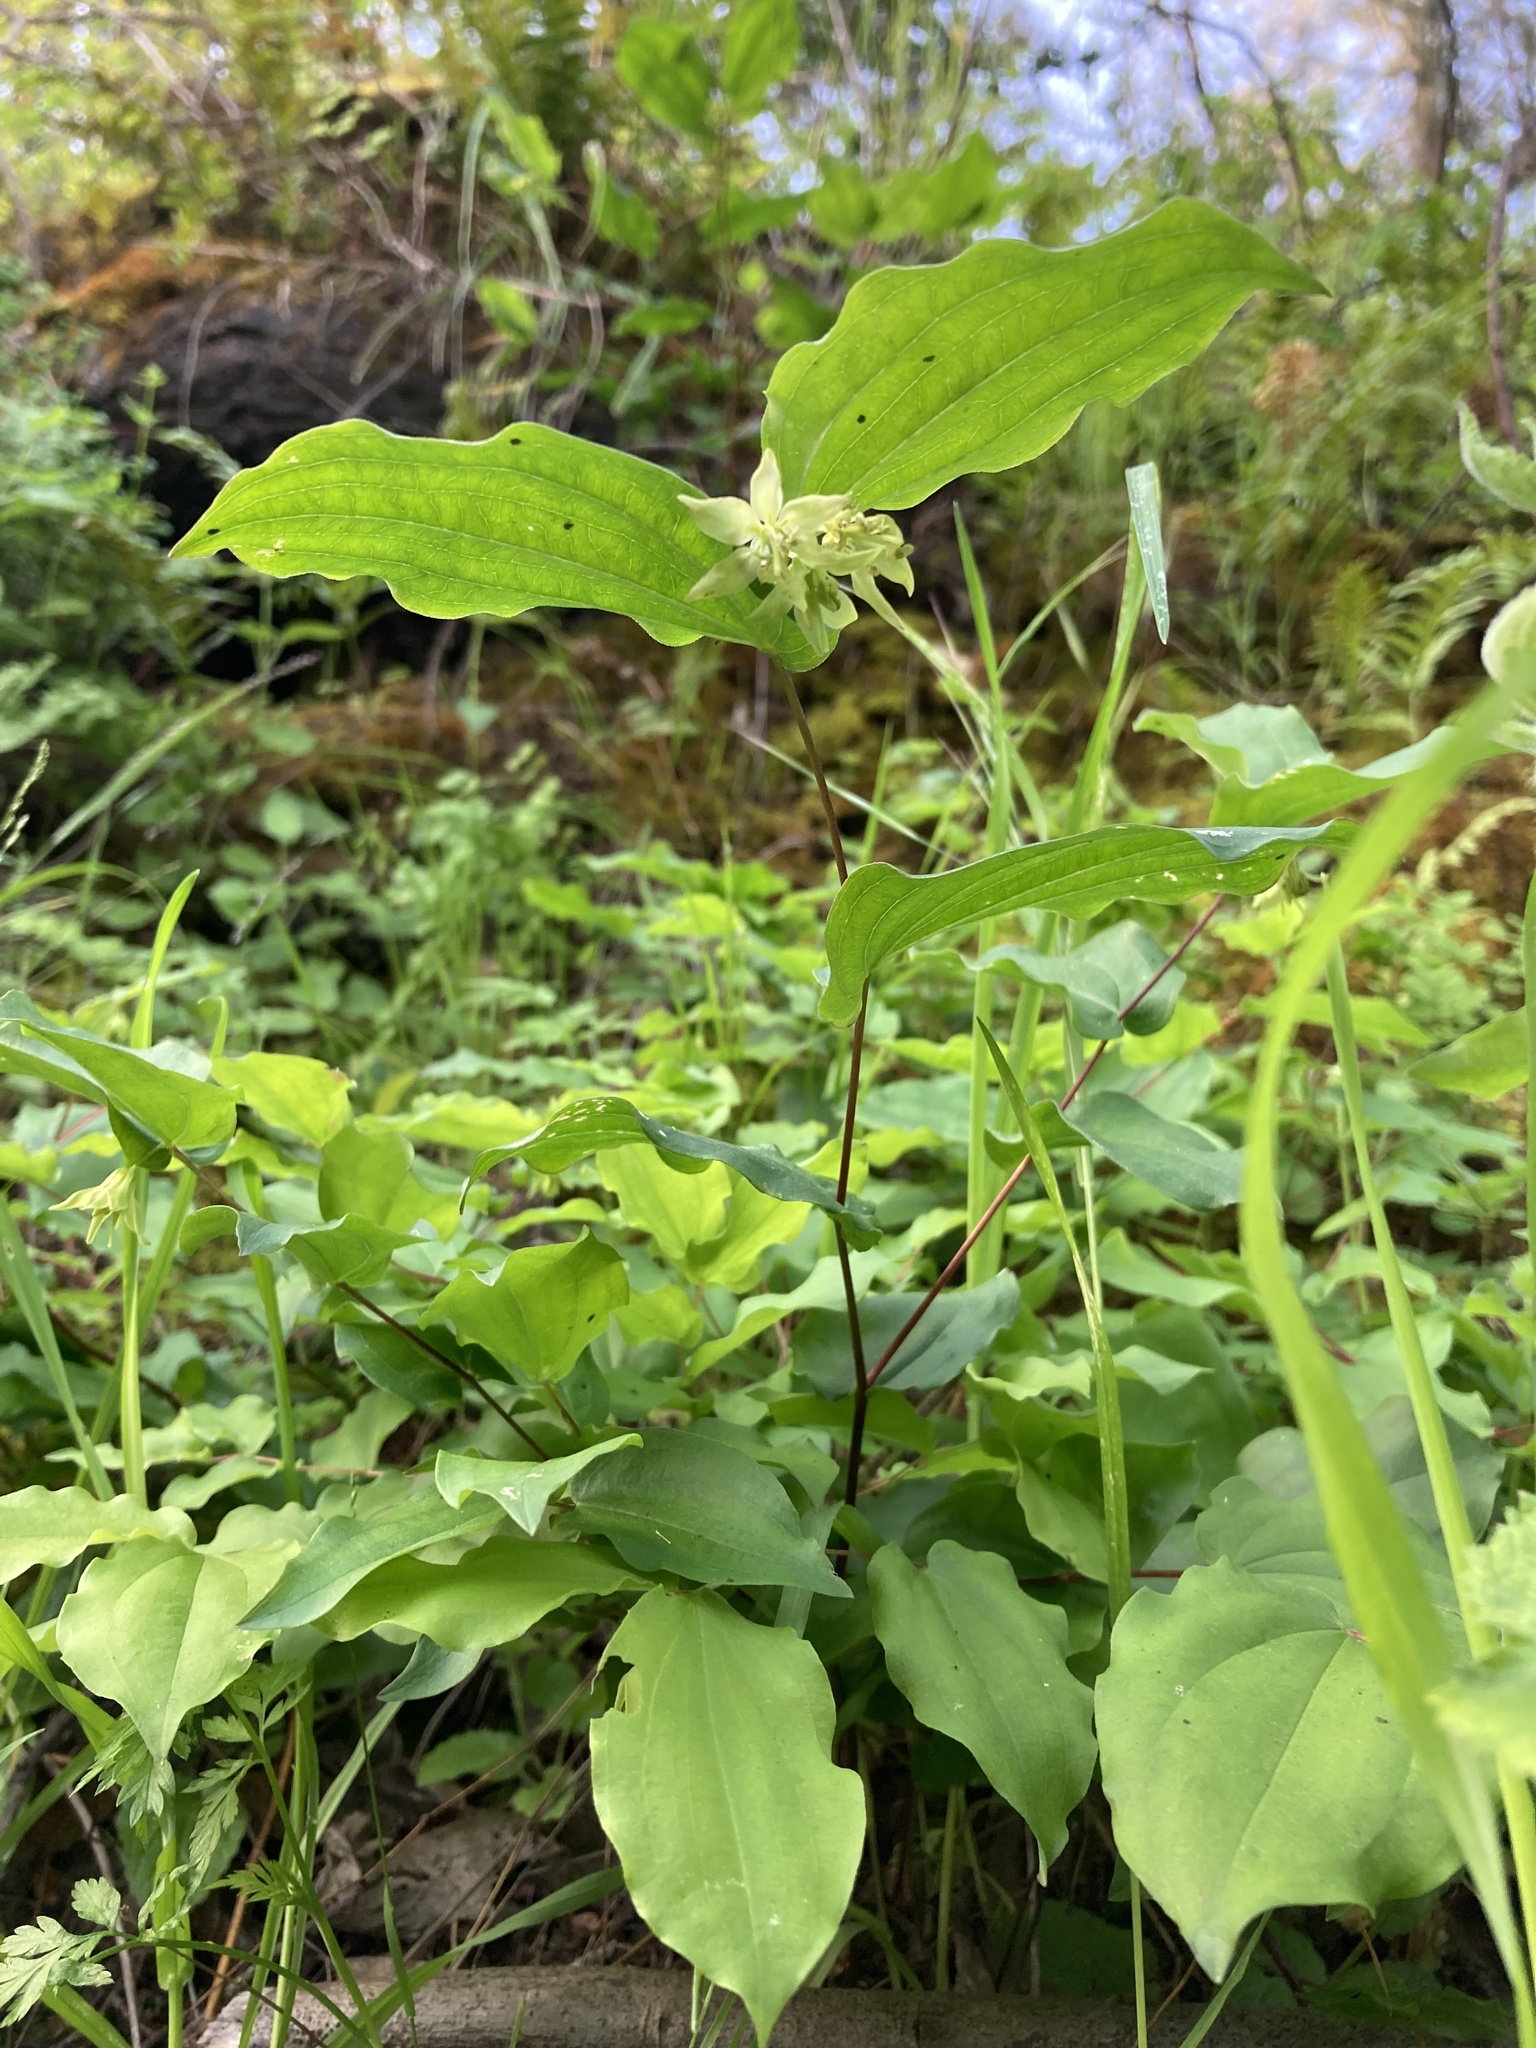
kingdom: Plantae
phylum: Tracheophyta
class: Liliopsida
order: Liliales
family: Liliaceae
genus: Prosartes
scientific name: Prosartes hookeri
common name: Fairy-bells
